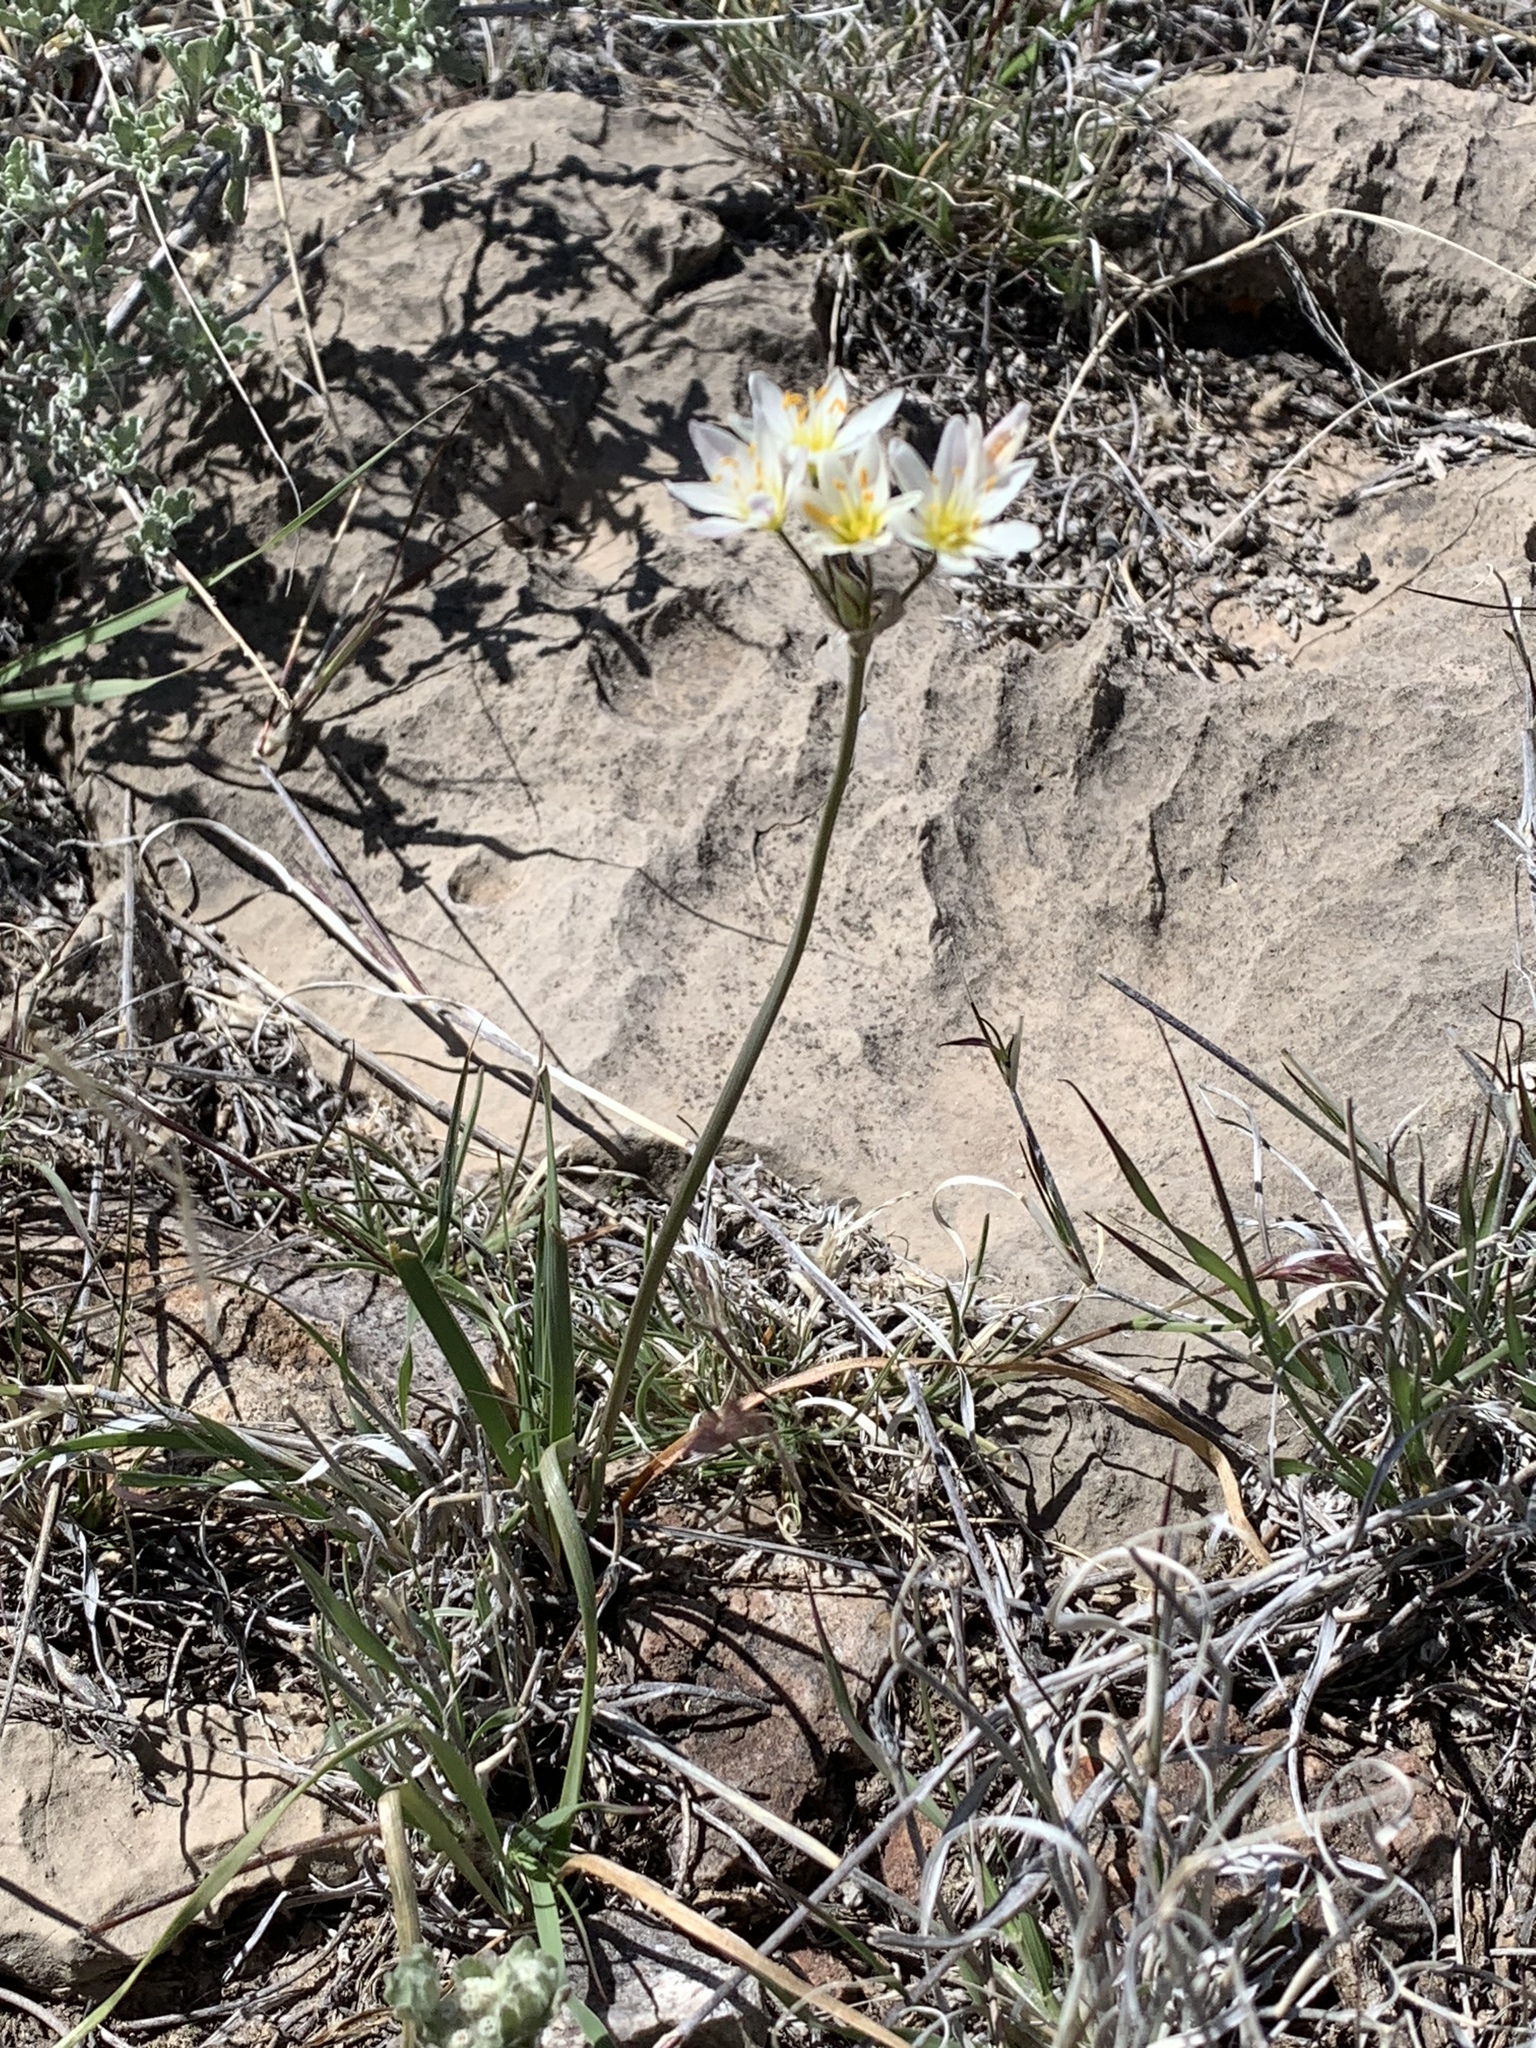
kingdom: Plantae
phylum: Tracheophyta
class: Liliopsida
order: Asparagales
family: Amaryllidaceae
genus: Nothoscordum
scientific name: Nothoscordum bivalve
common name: Crow-poison
